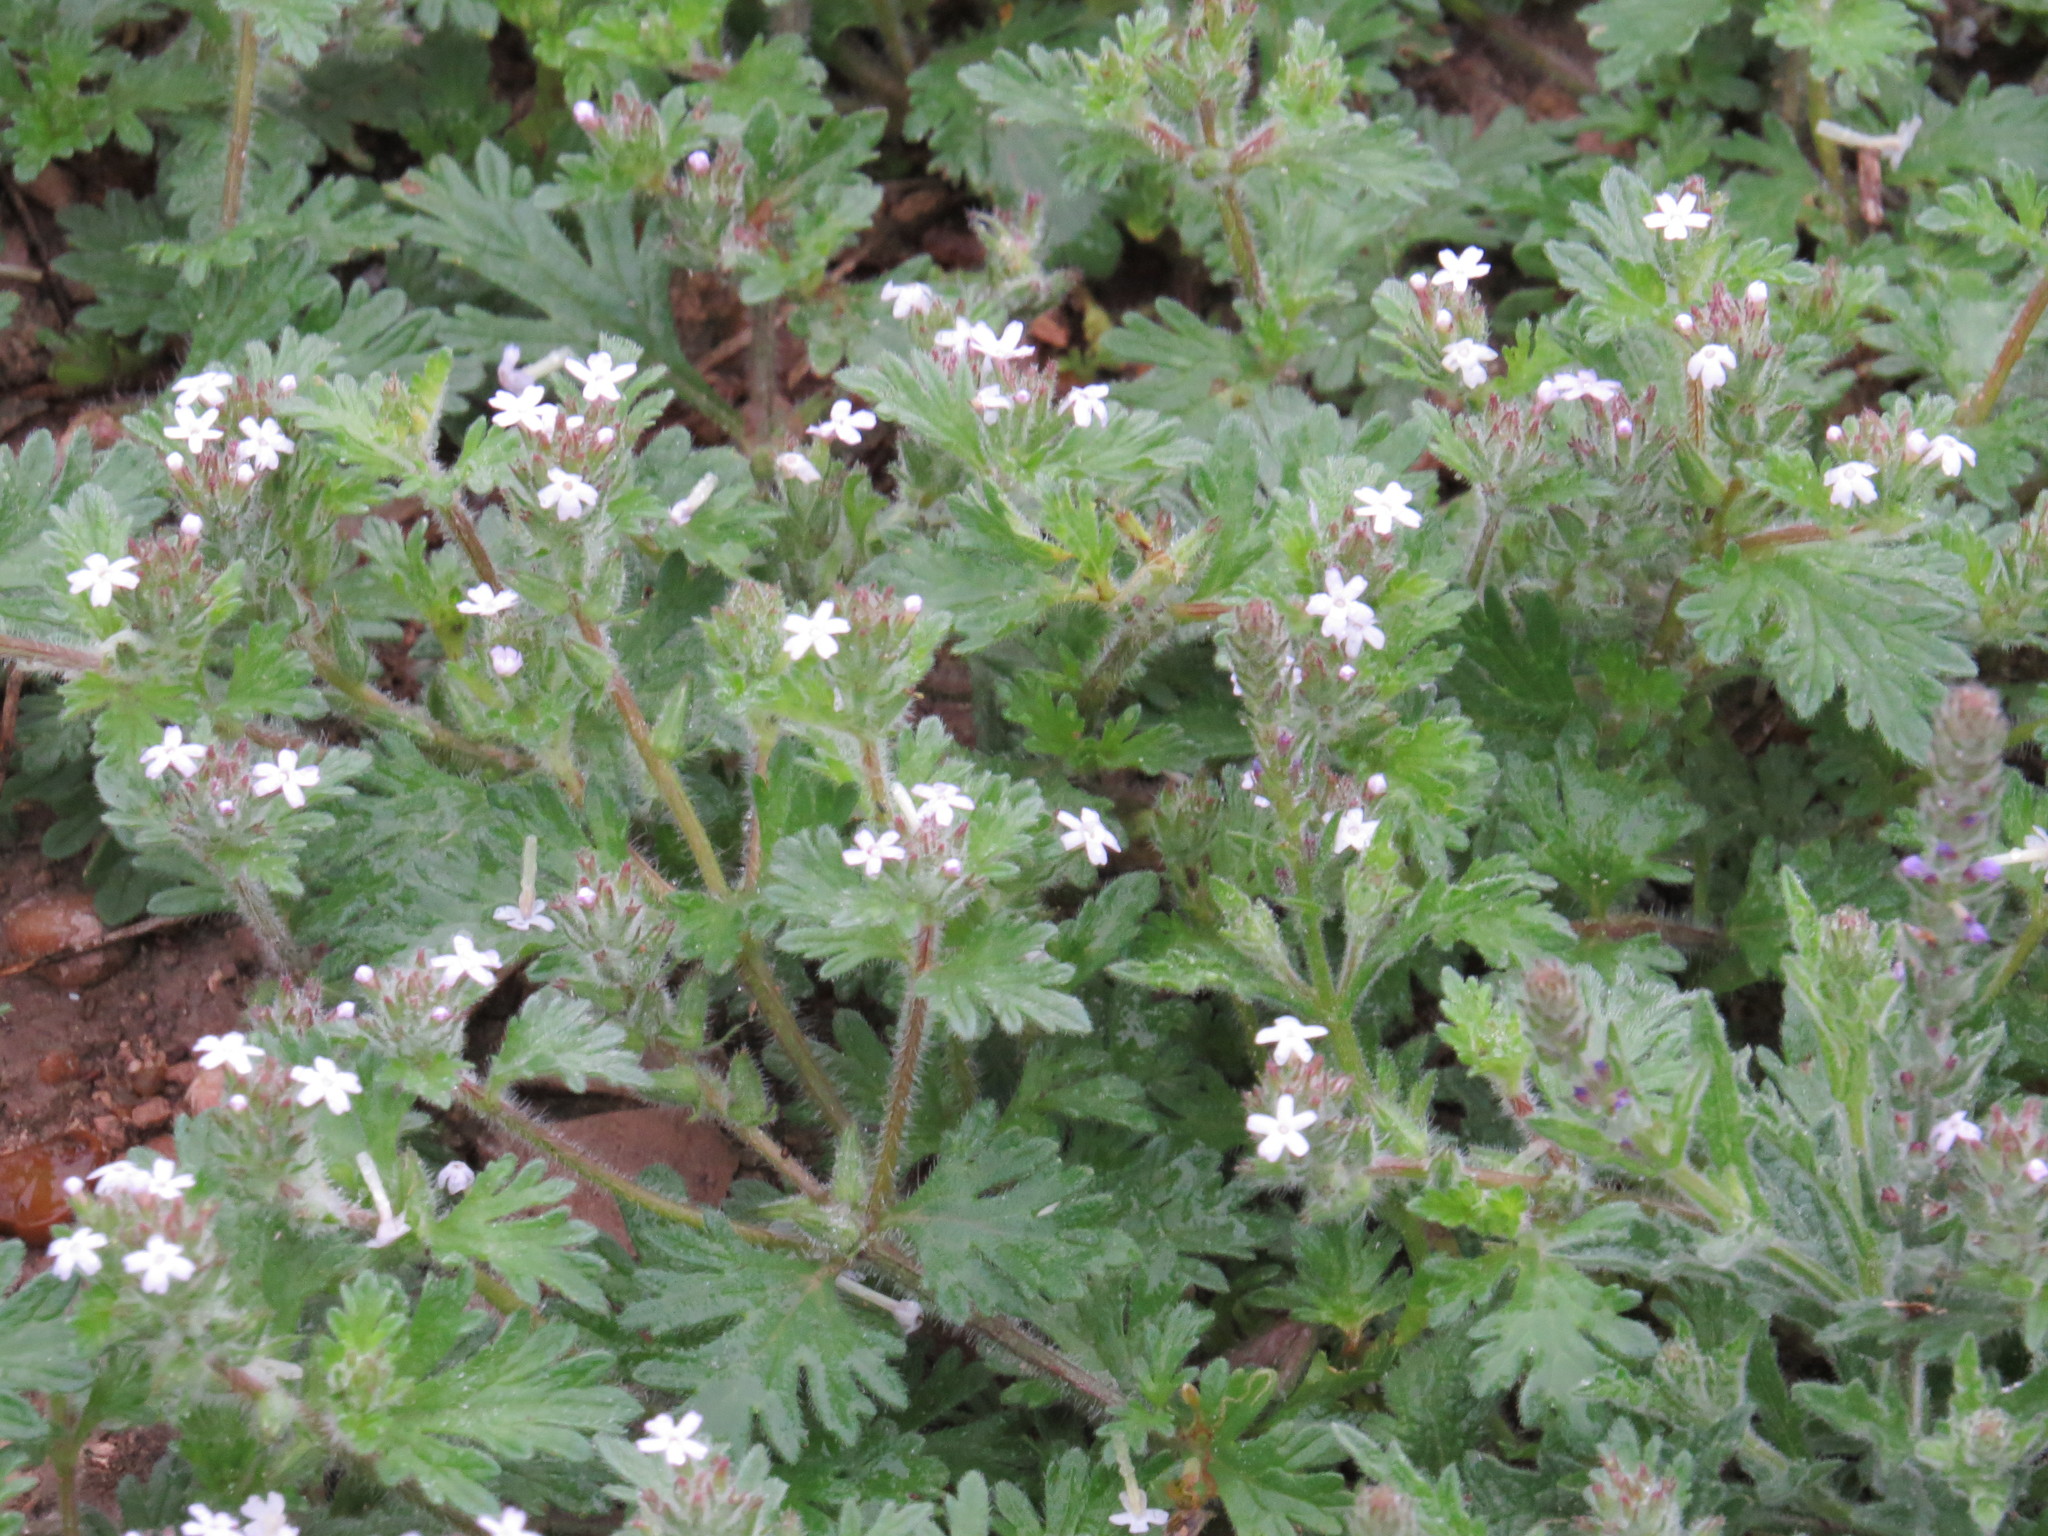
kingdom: Plantae
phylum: Tracheophyta
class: Magnoliopsida
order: Lamiales
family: Verbenaceae
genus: Verbena
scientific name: Verbena quadrangulata
